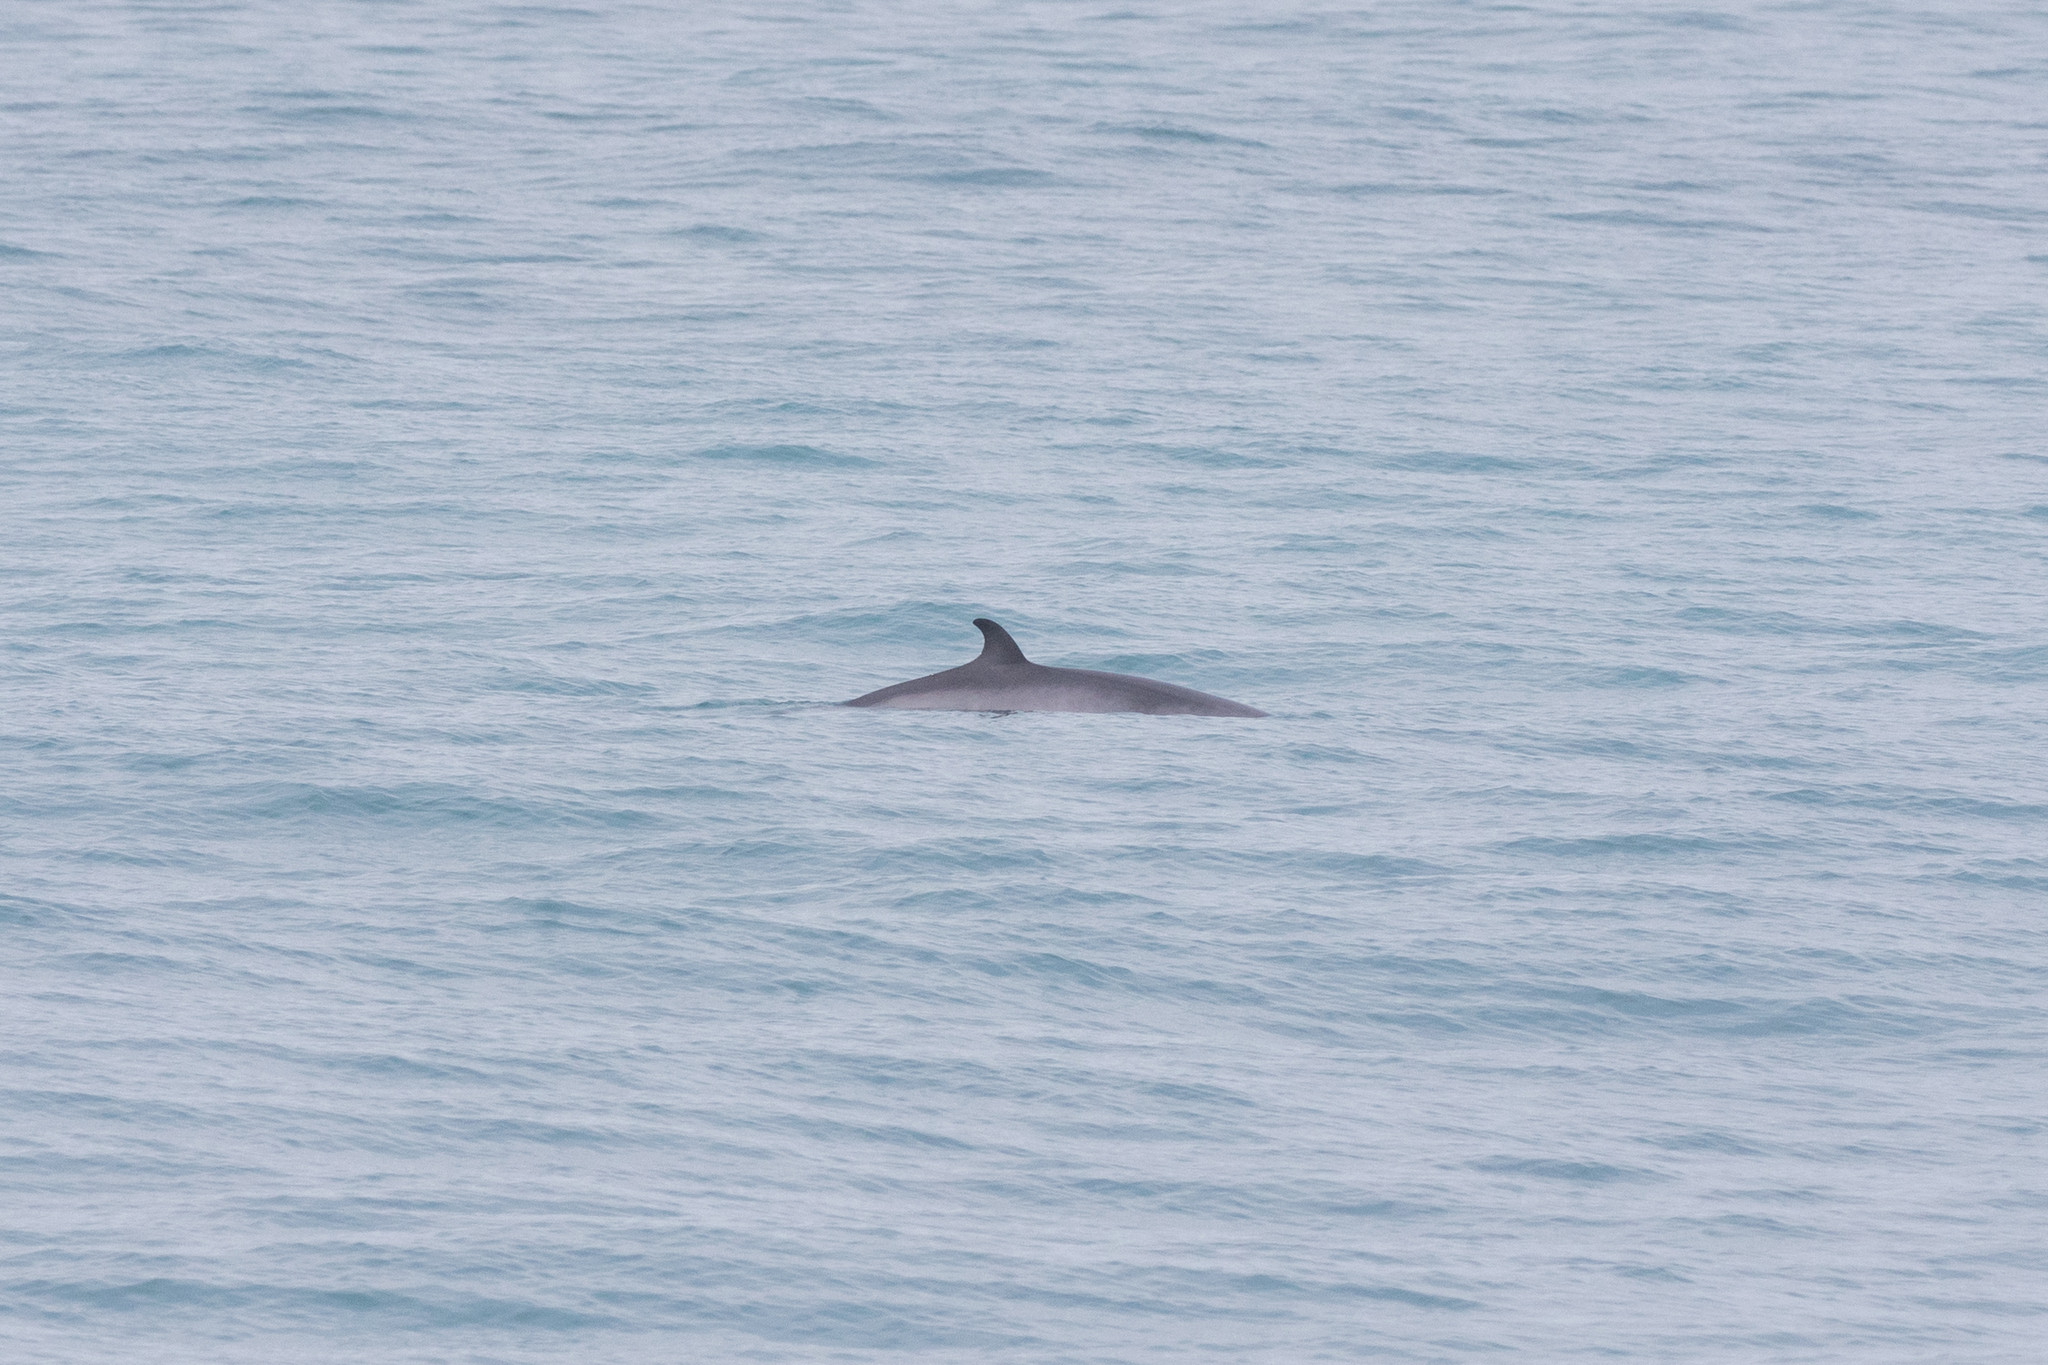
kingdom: Animalia
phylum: Chordata
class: Mammalia
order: Cetacea
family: Balaenopteridae
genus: Balaenoptera
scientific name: Balaenoptera acutorostrata
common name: Common minke whale
